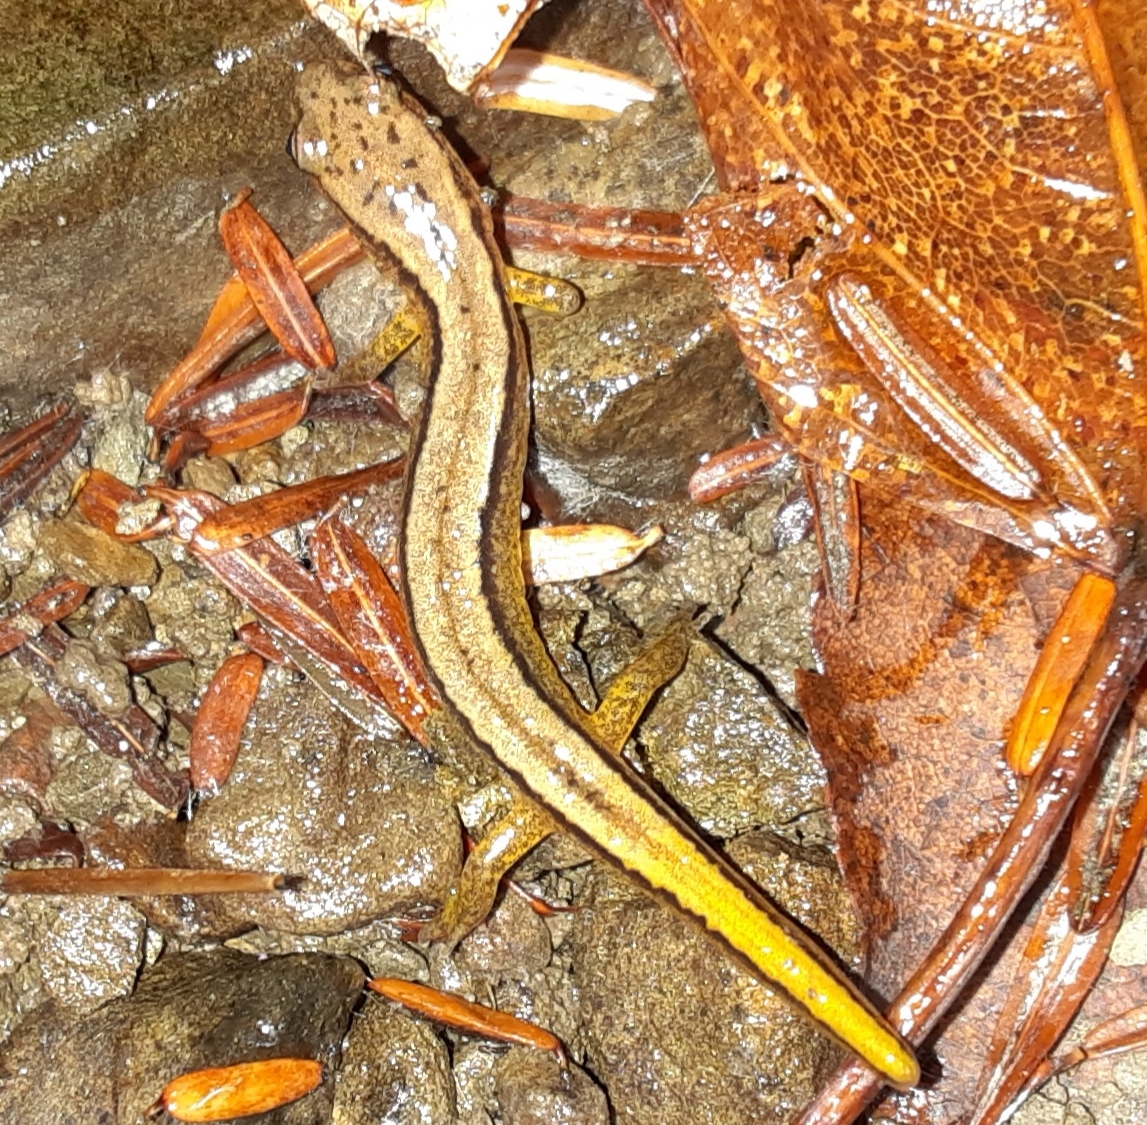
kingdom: Animalia
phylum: Chordata
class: Amphibia
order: Caudata
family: Plethodontidae
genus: Eurycea
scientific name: Eurycea bislineata
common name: Northern two-lined salamander
